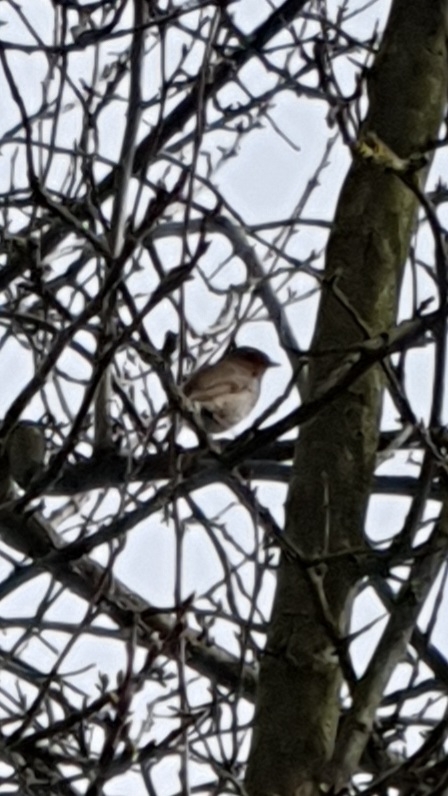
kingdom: Animalia
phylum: Chordata
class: Aves
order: Passeriformes
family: Muscicapidae
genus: Erithacus
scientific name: Erithacus rubecula
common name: European robin
